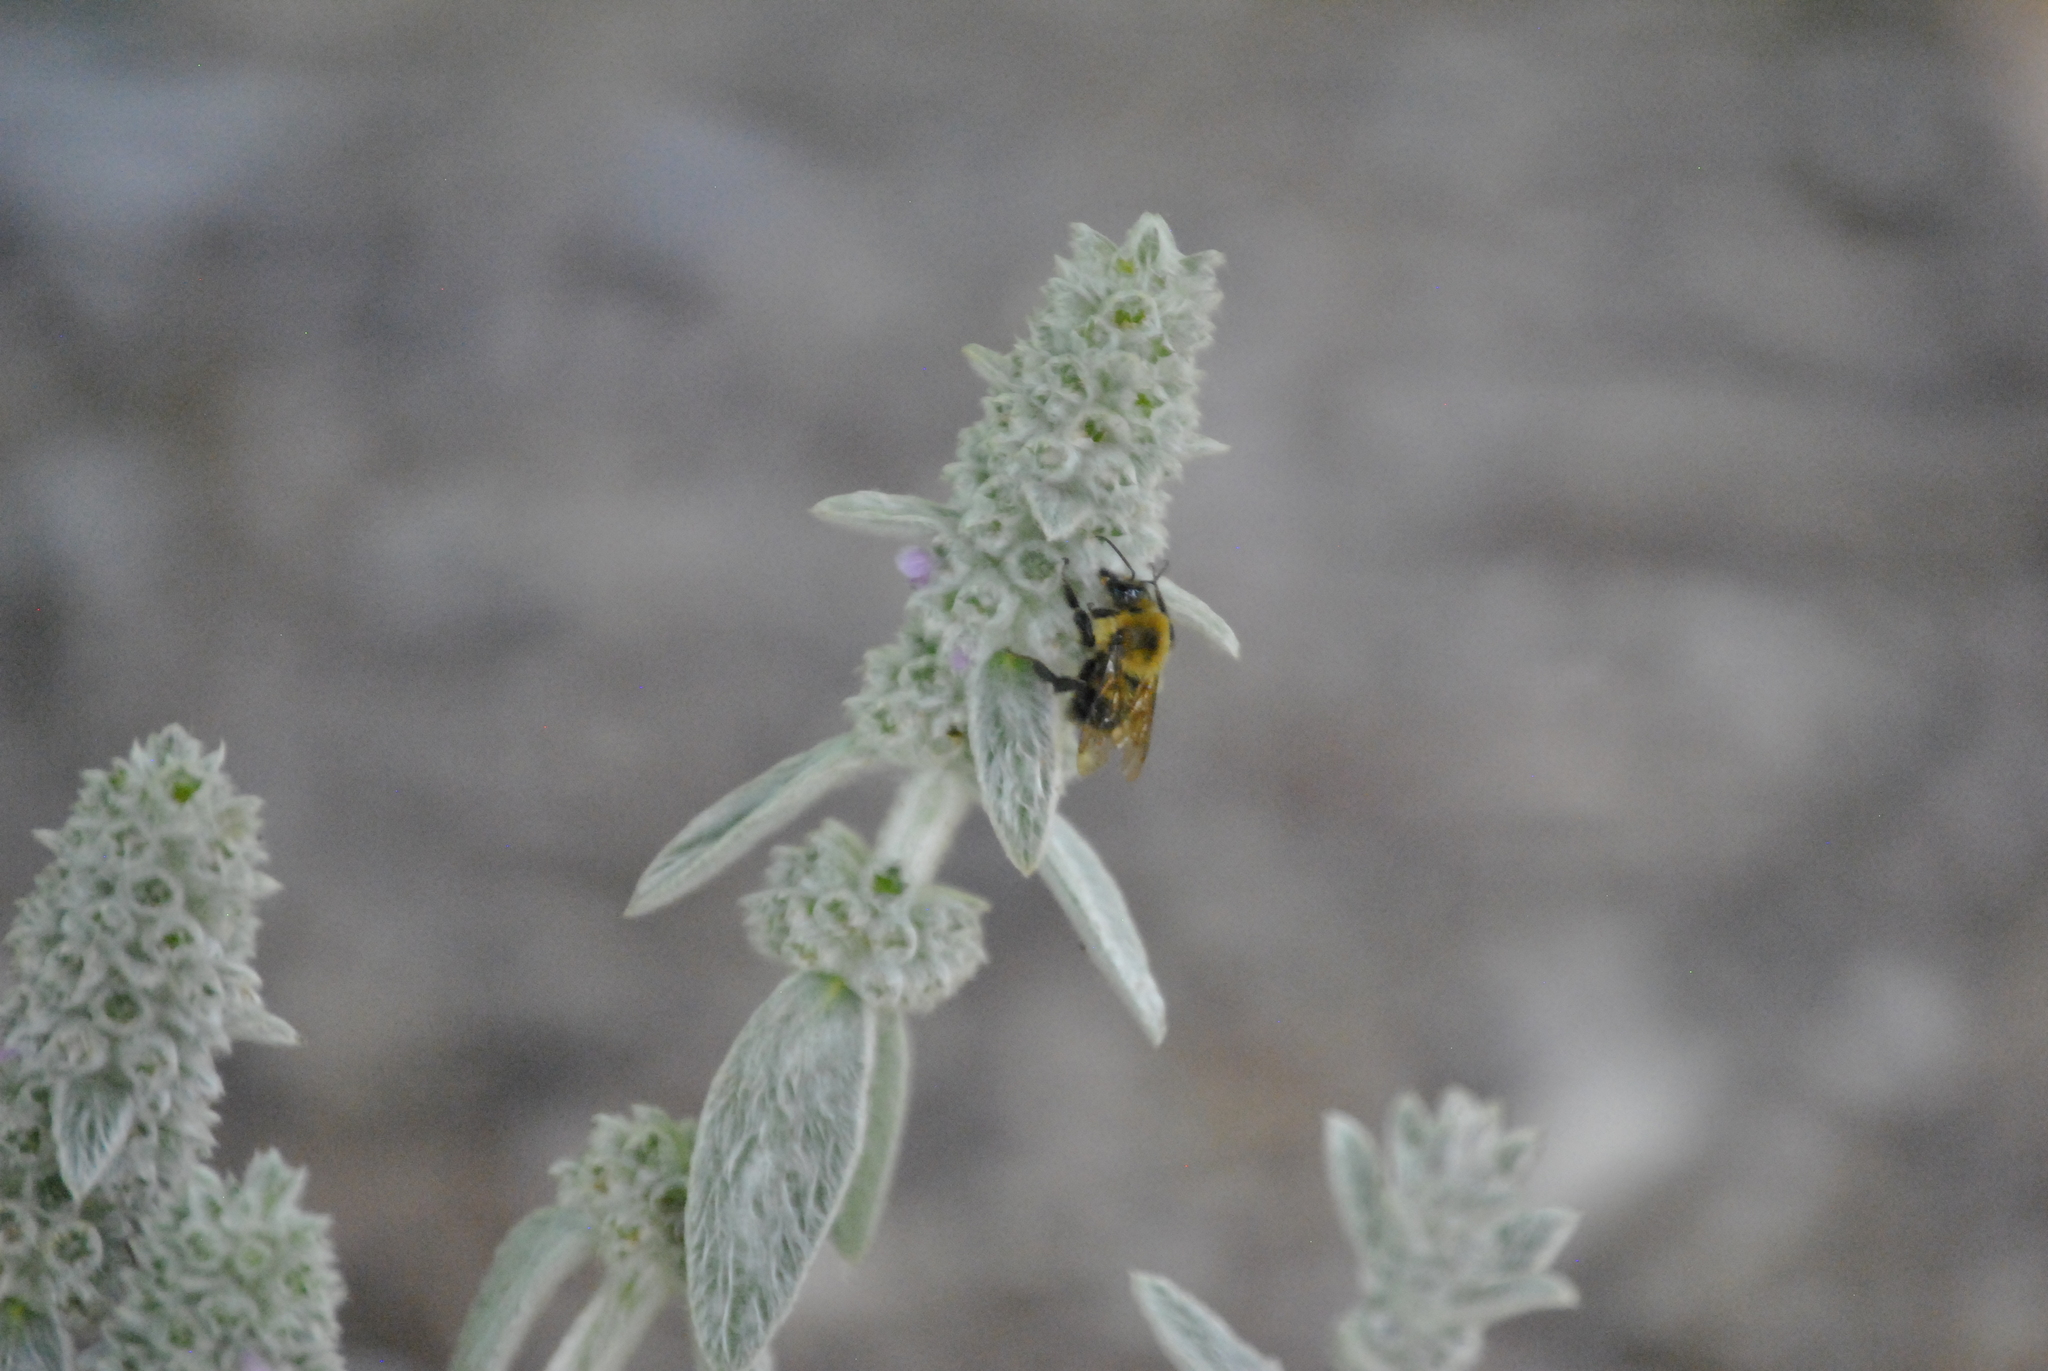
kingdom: Animalia
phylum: Arthropoda
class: Insecta
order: Hymenoptera
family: Apidae
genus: Bombus
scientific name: Bombus bimaculatus
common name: Two-spotted bumble bee
